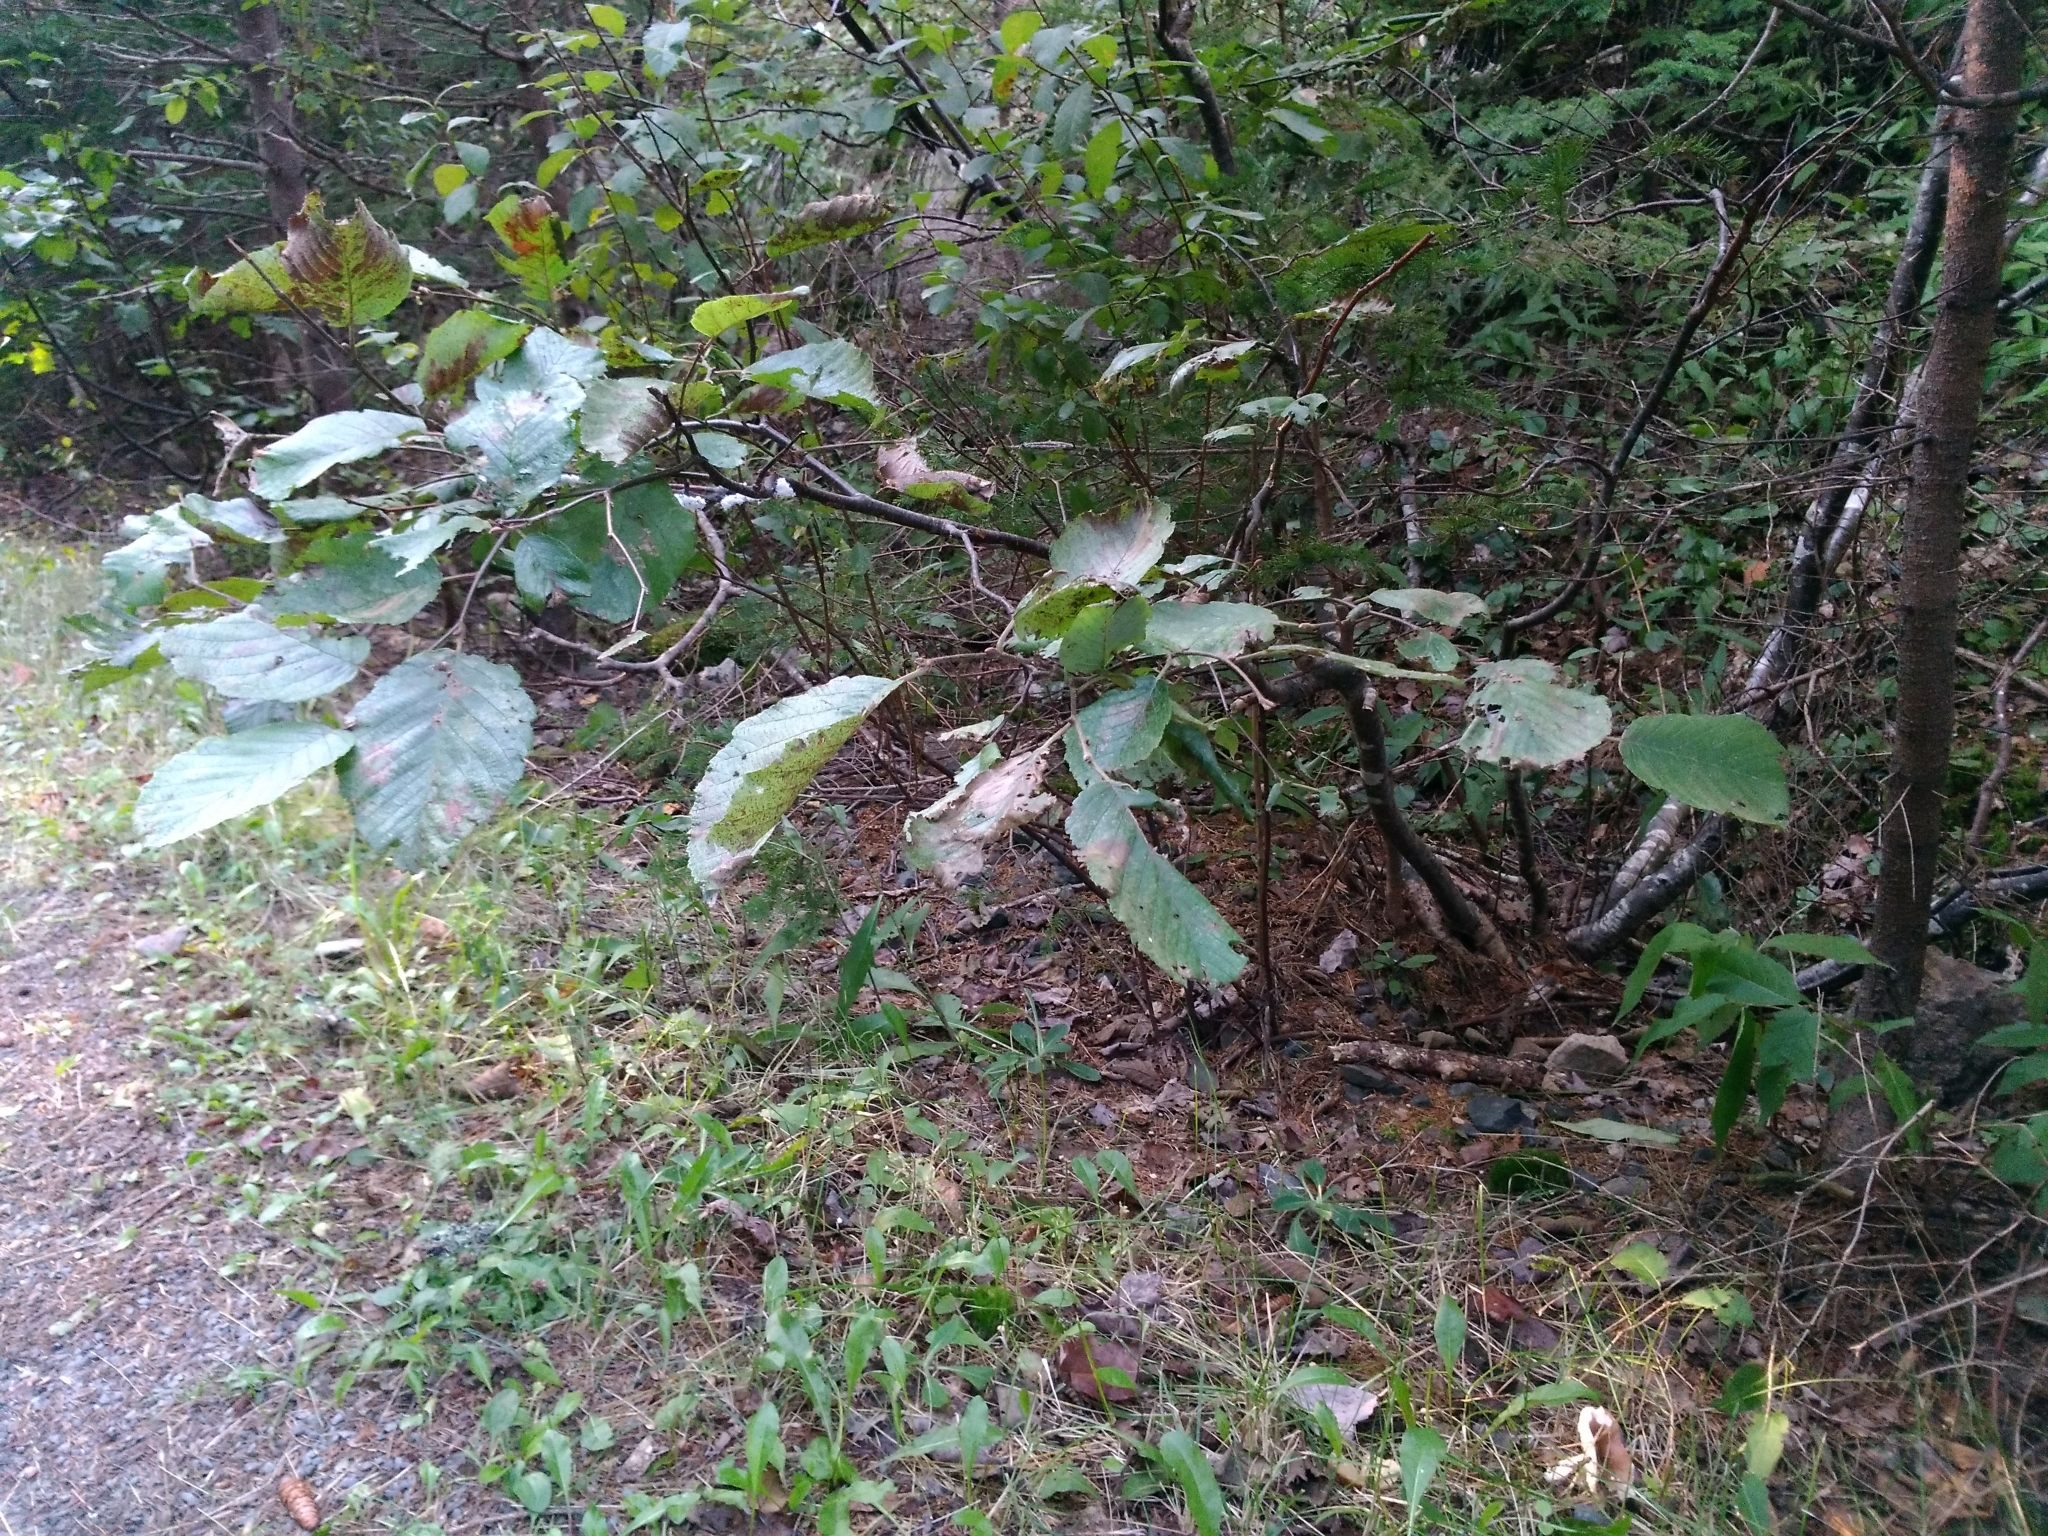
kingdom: Plantae
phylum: Tracheophyta
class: Magnoliopsida
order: Fagales
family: Betulaceae
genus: Alnus
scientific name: Alnus alnobetula
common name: Green alder
